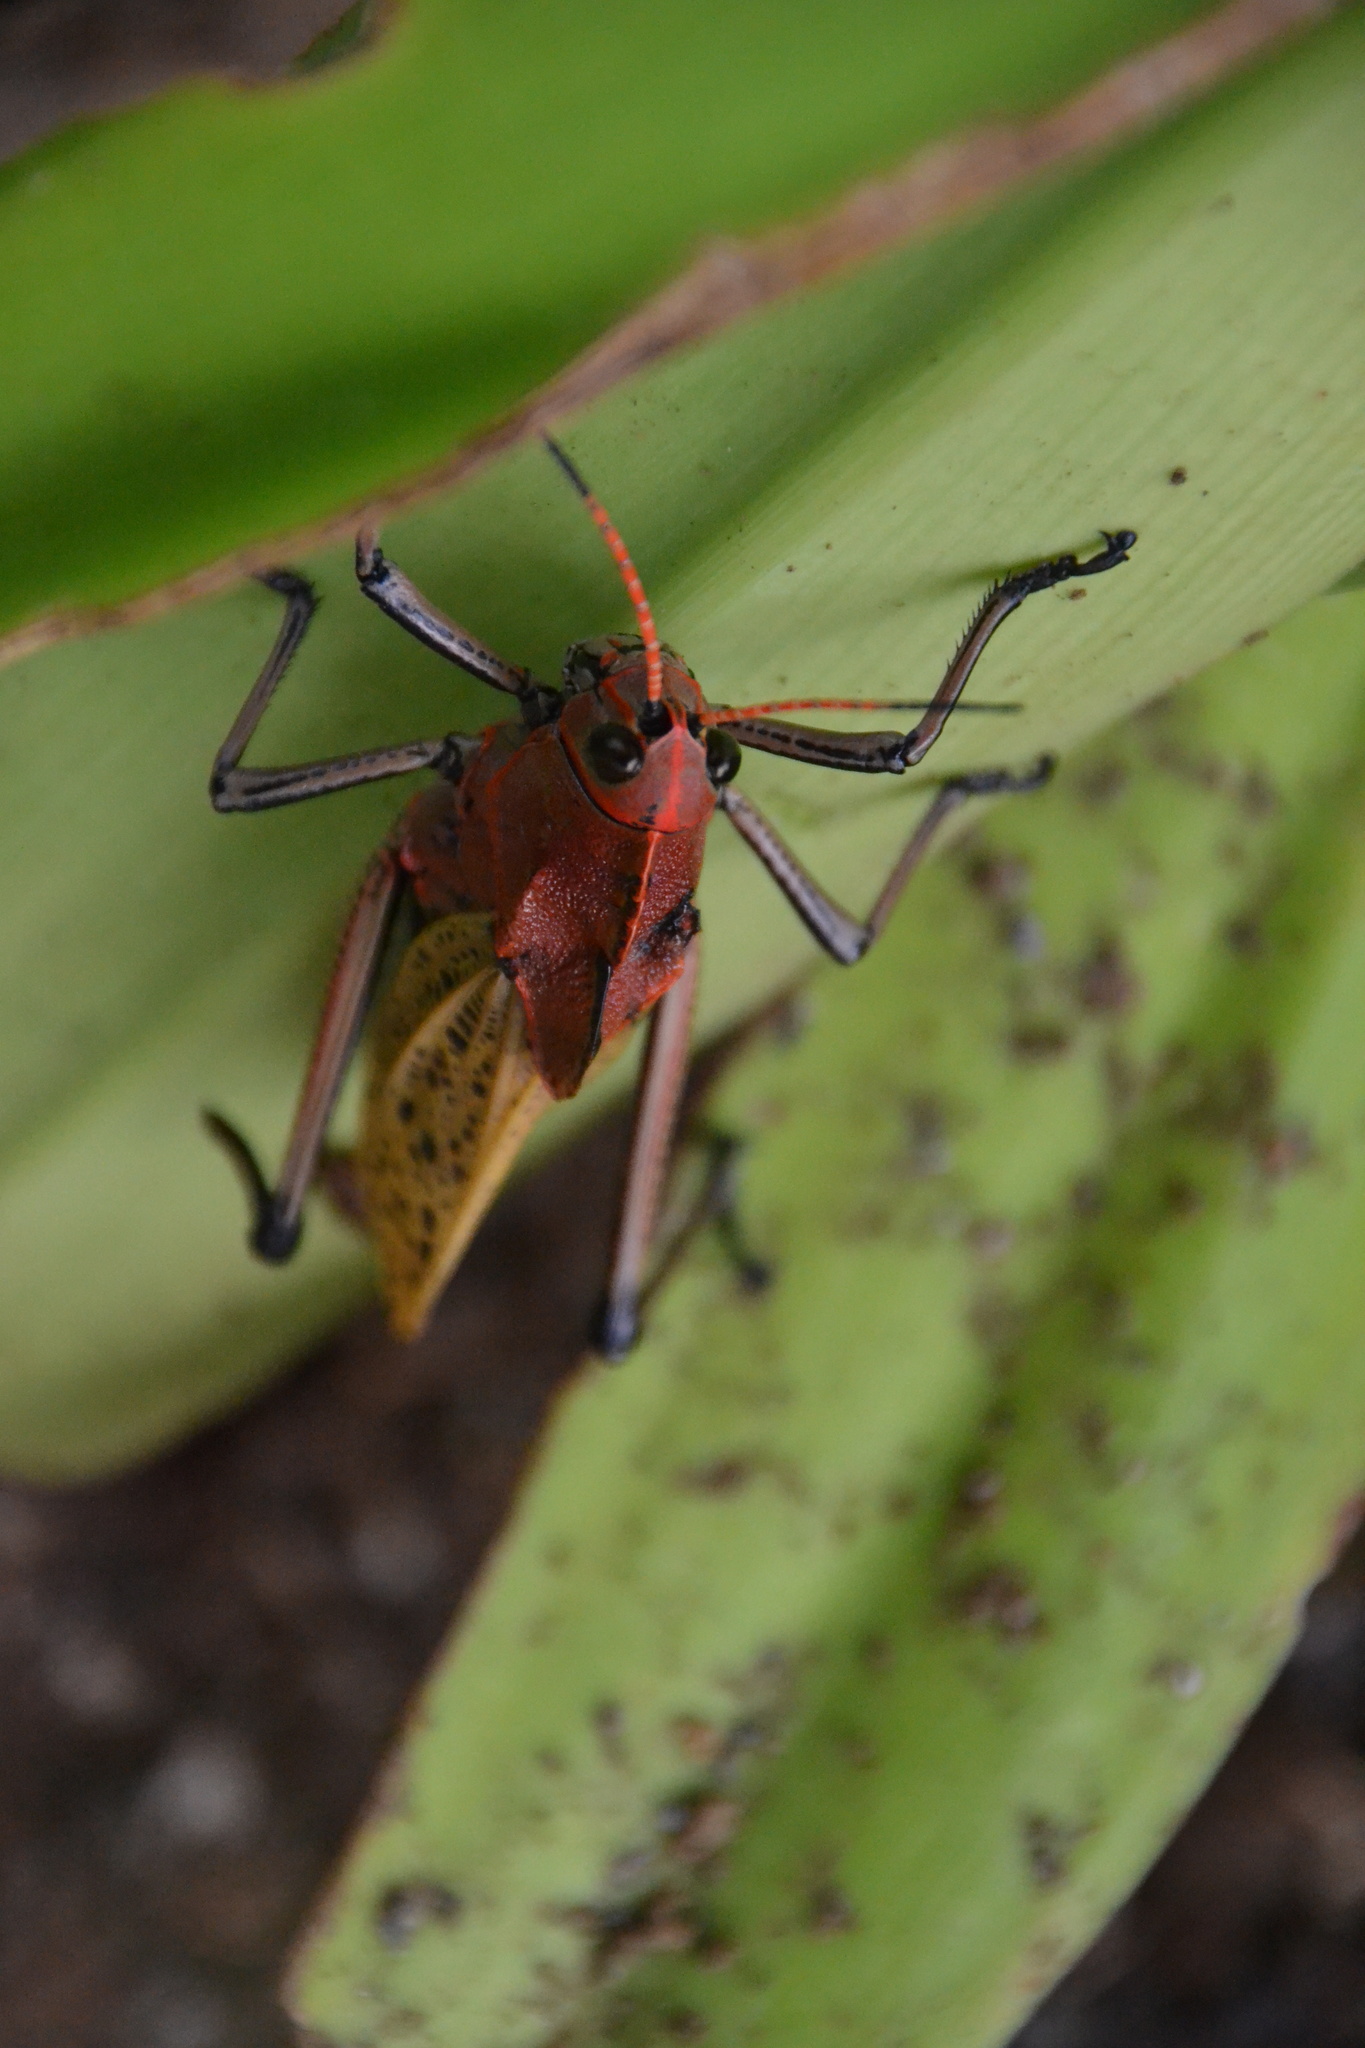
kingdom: Animalia
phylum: Arthropoda
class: Insecta
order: Orthoptera
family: Romaleidae
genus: Romalea
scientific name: Romalea
